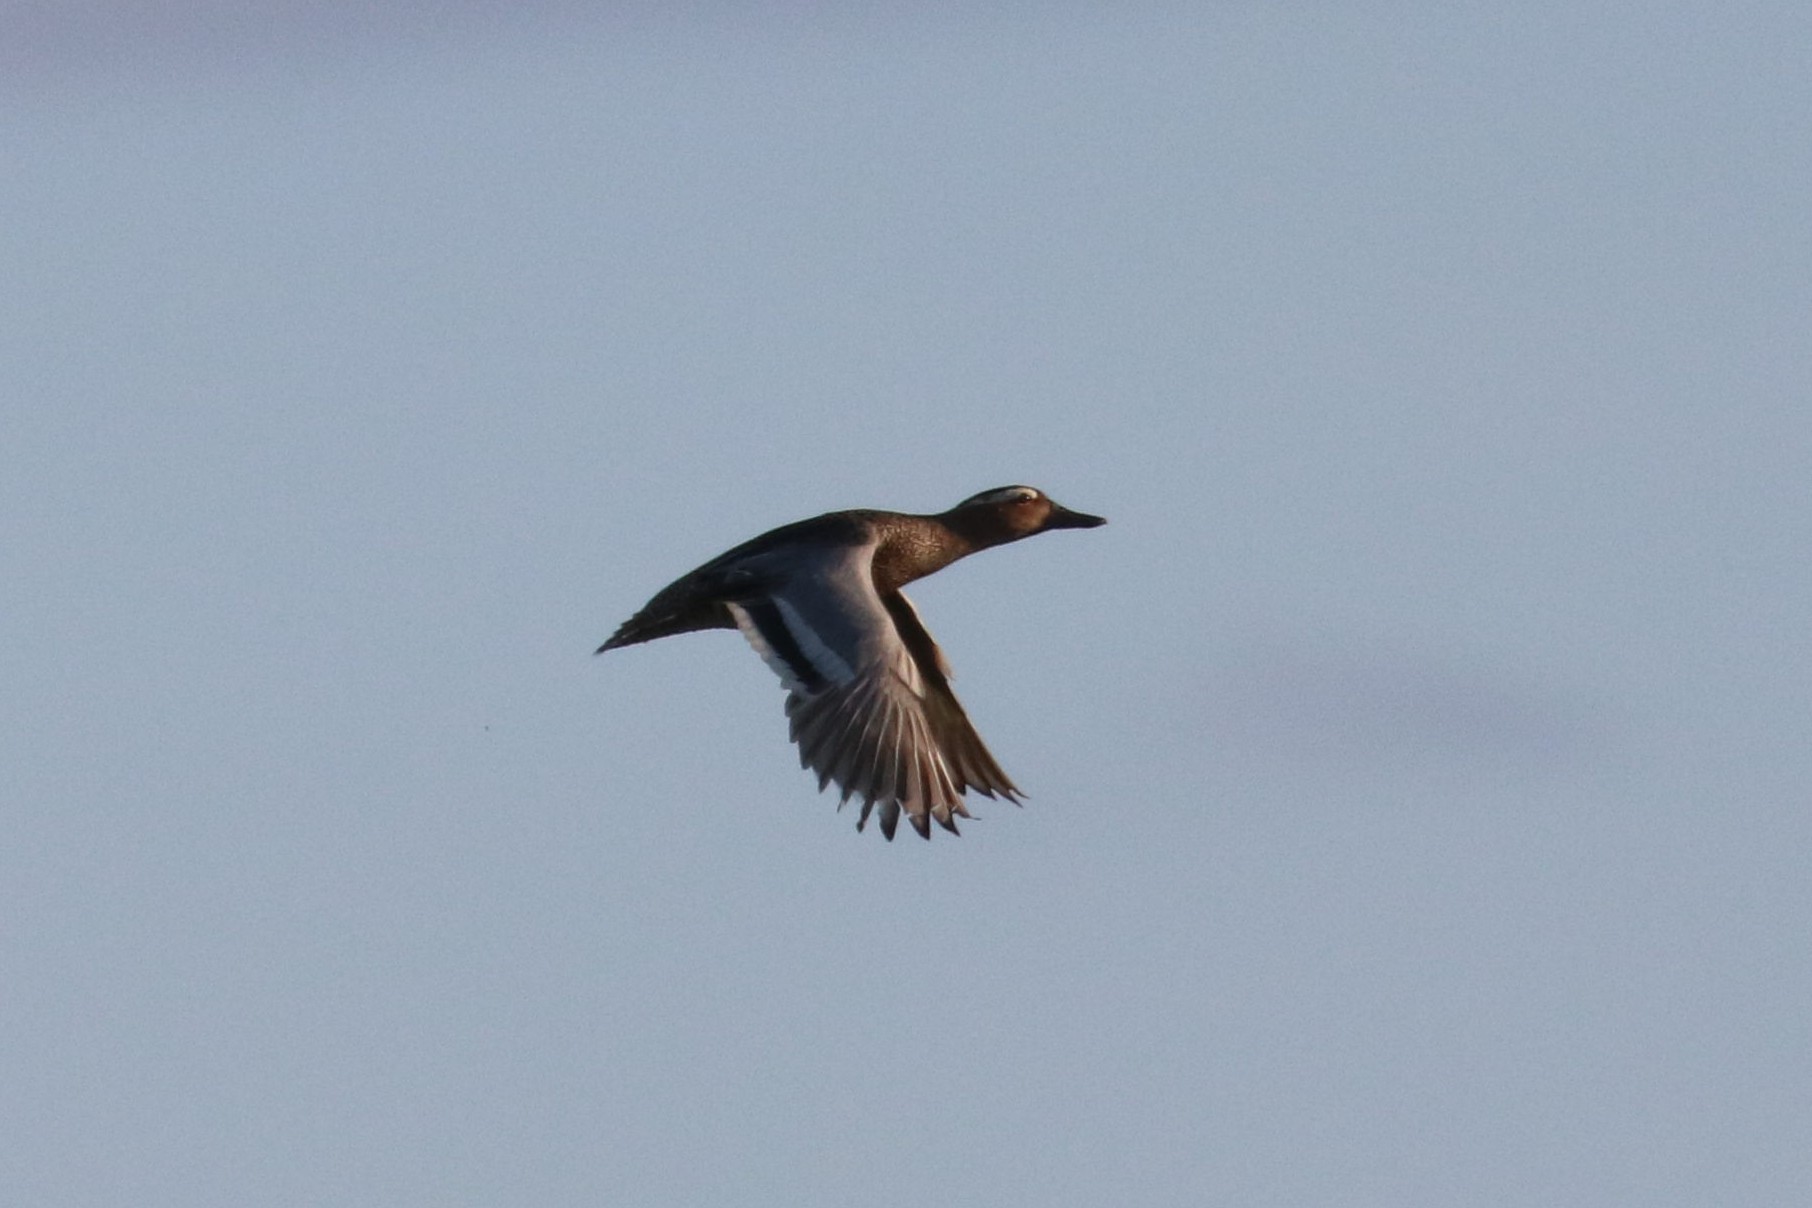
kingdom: Animalia
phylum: Chordata
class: Aves
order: Anseriformes
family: Anatidae
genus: Spatula
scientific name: Spatula querquedula
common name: Garganey
